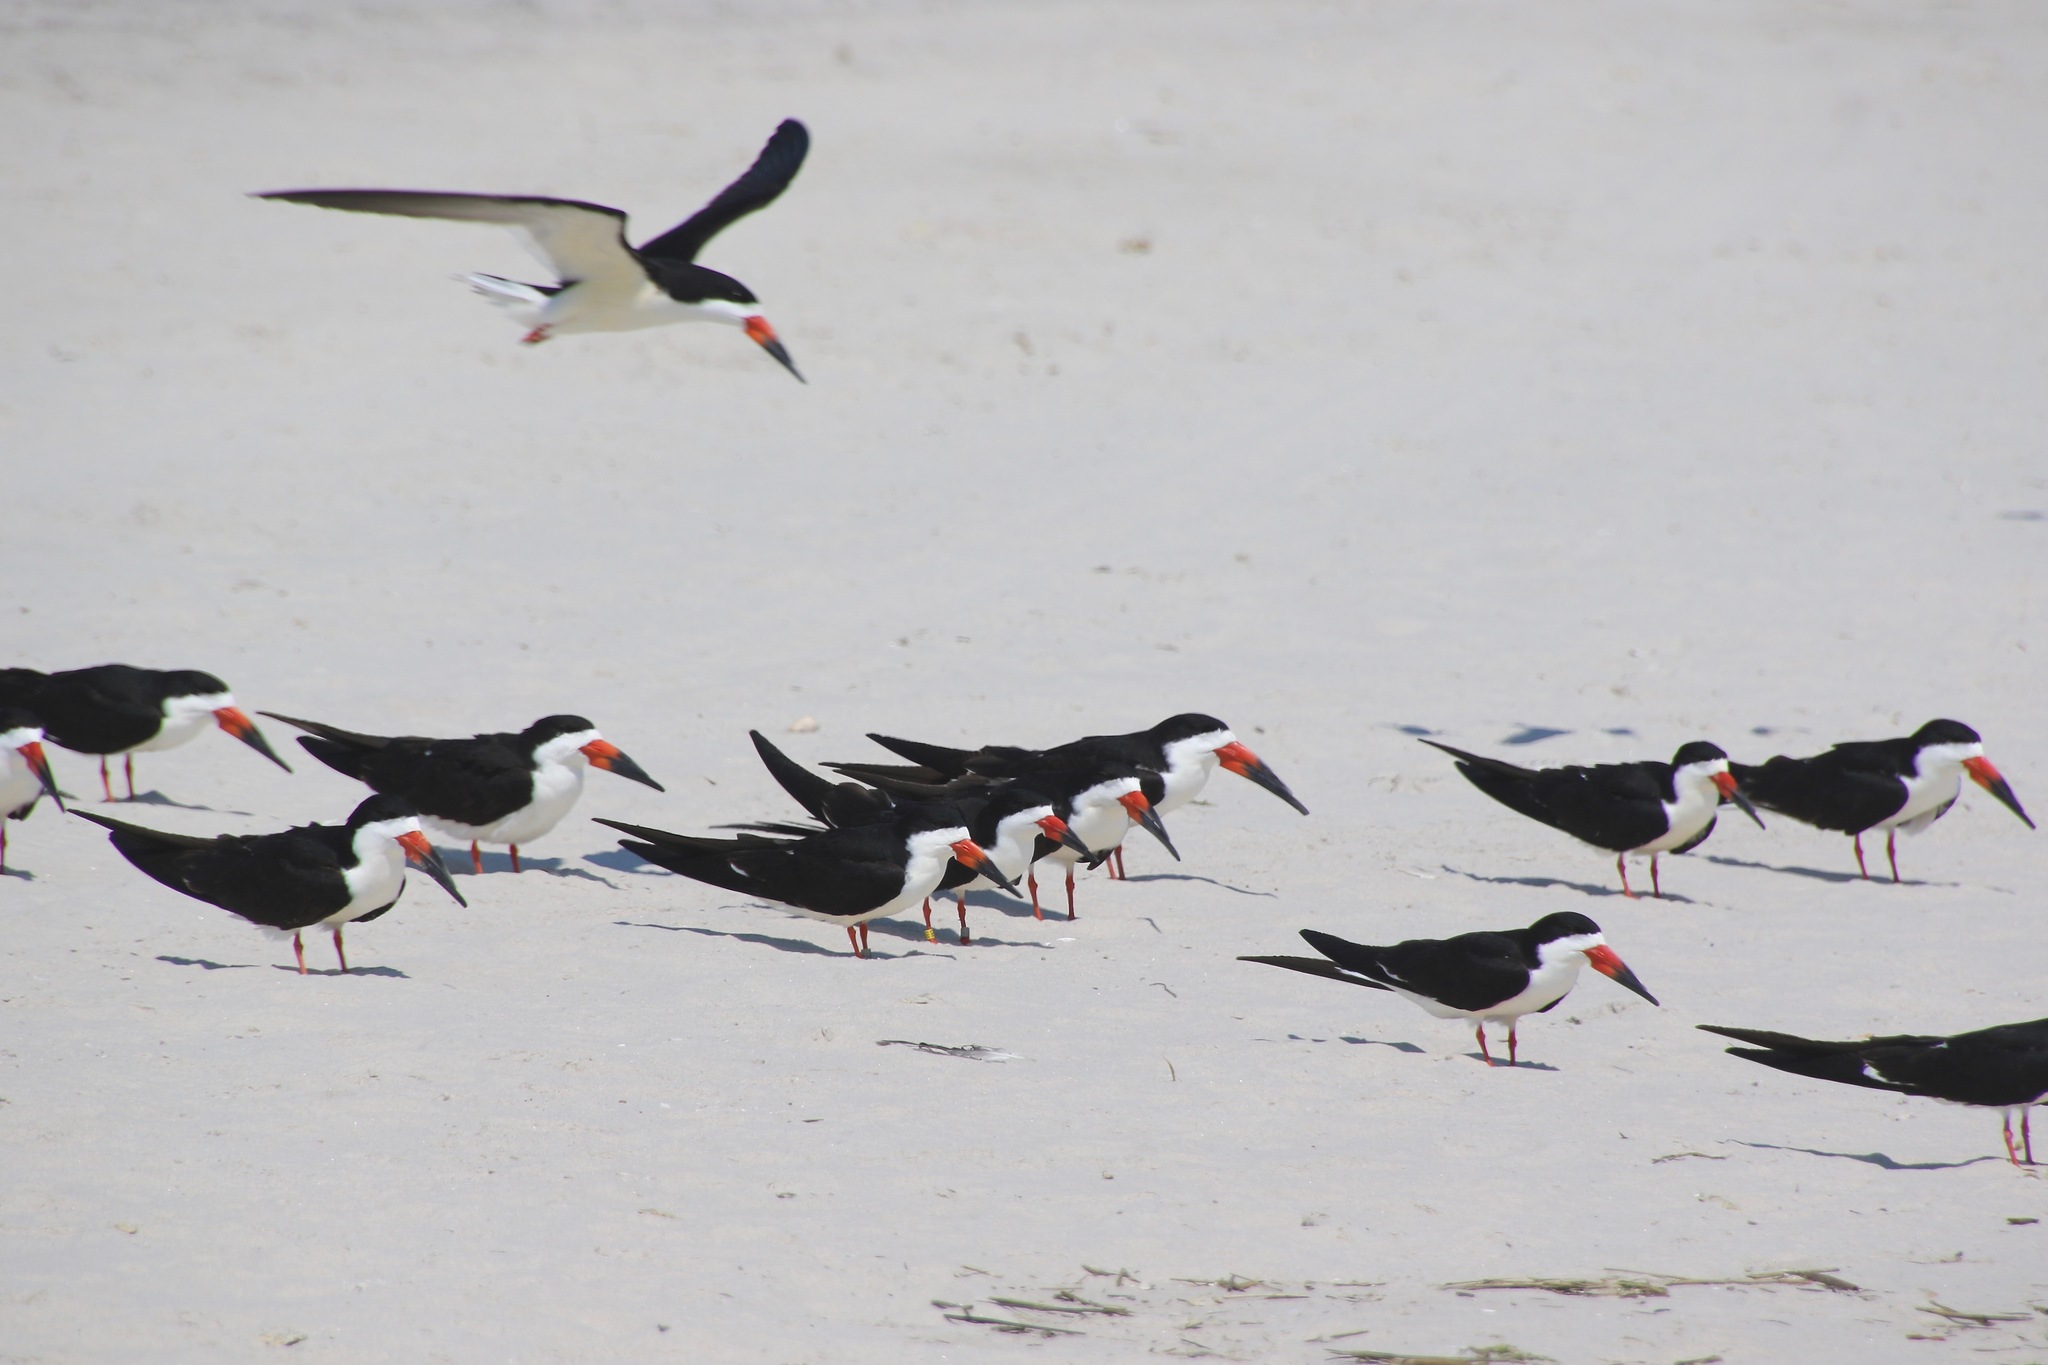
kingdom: Animalia
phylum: Chordata
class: Aves
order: Charadriiformes
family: Laridae
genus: Rynchops
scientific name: Rynchops niger
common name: Black skimmer
